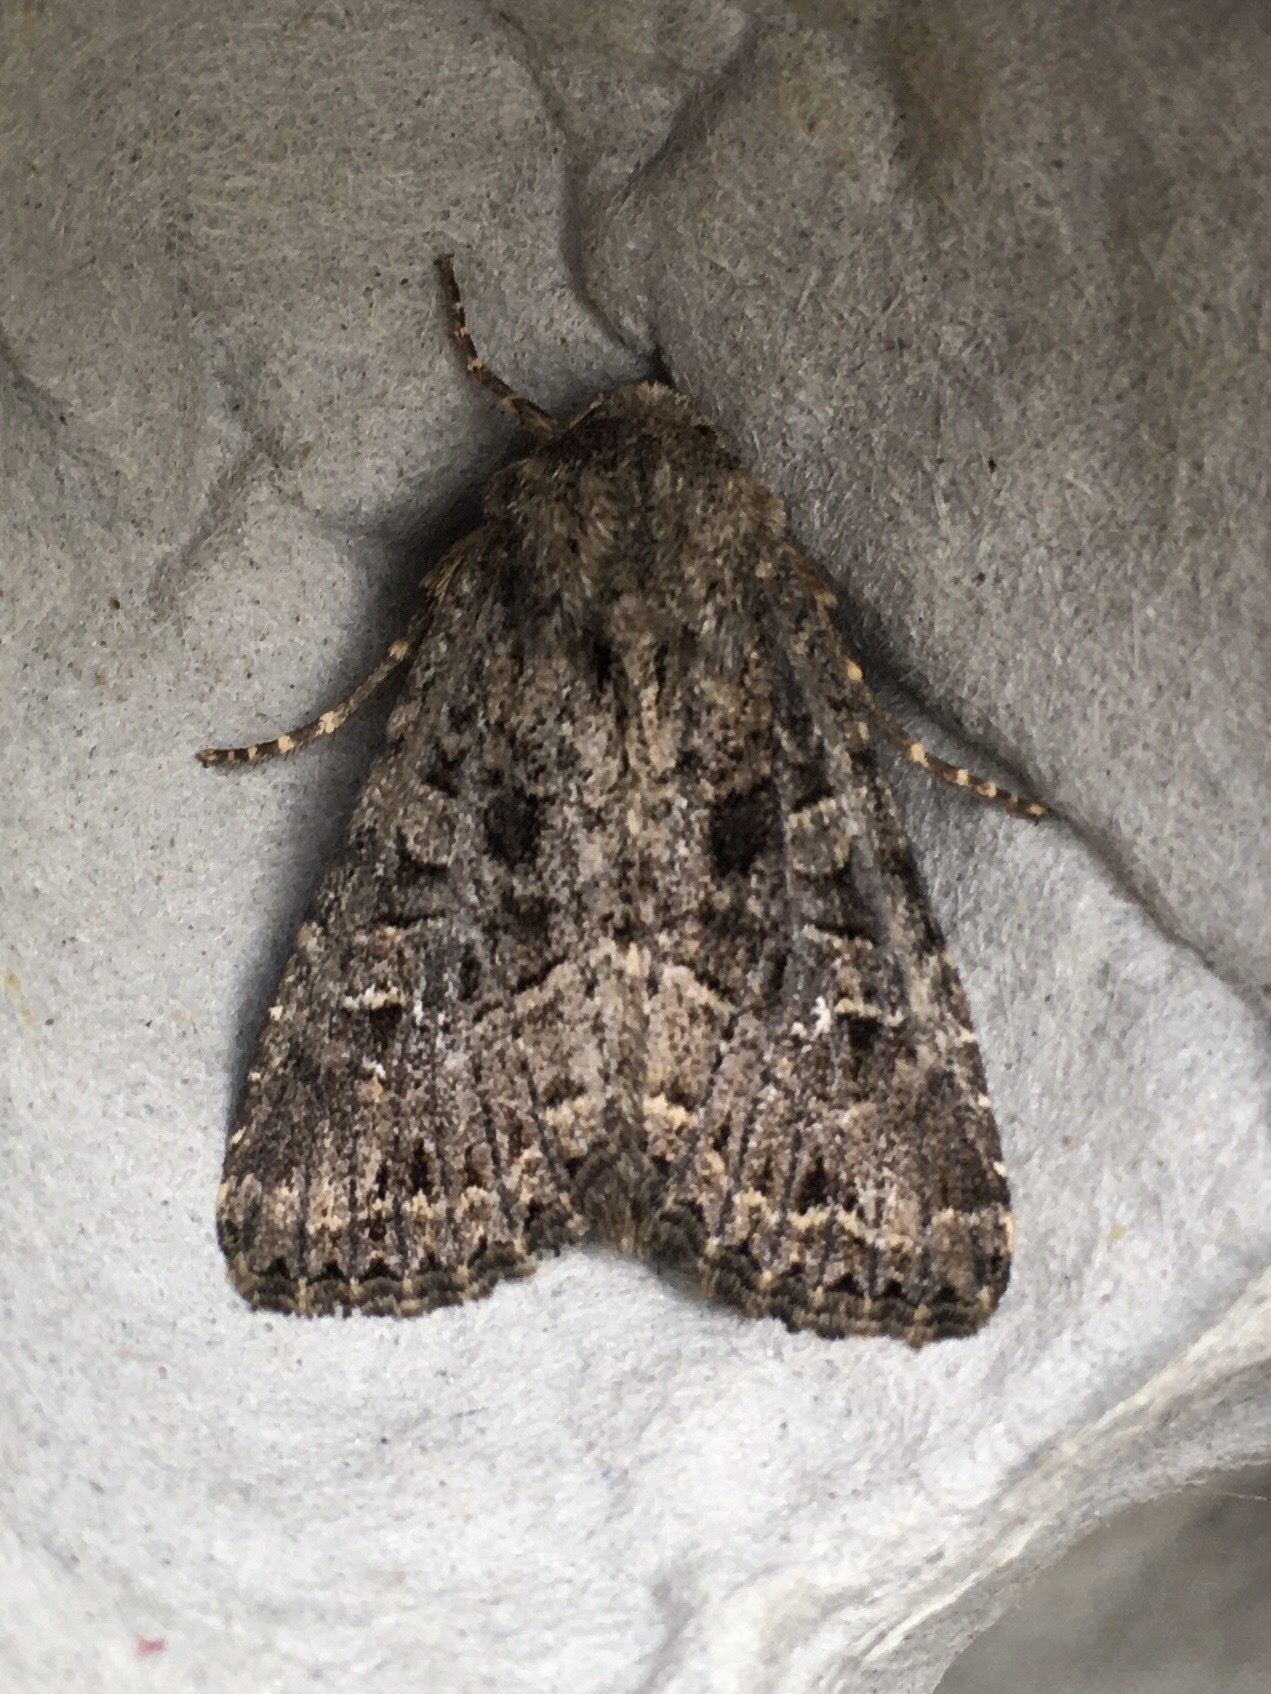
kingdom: Animalia
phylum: Arthropoda
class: Insecta
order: Lepidoptera
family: Noctuidae
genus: Apamea
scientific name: Apamea devastator
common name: Glassy cutworm
